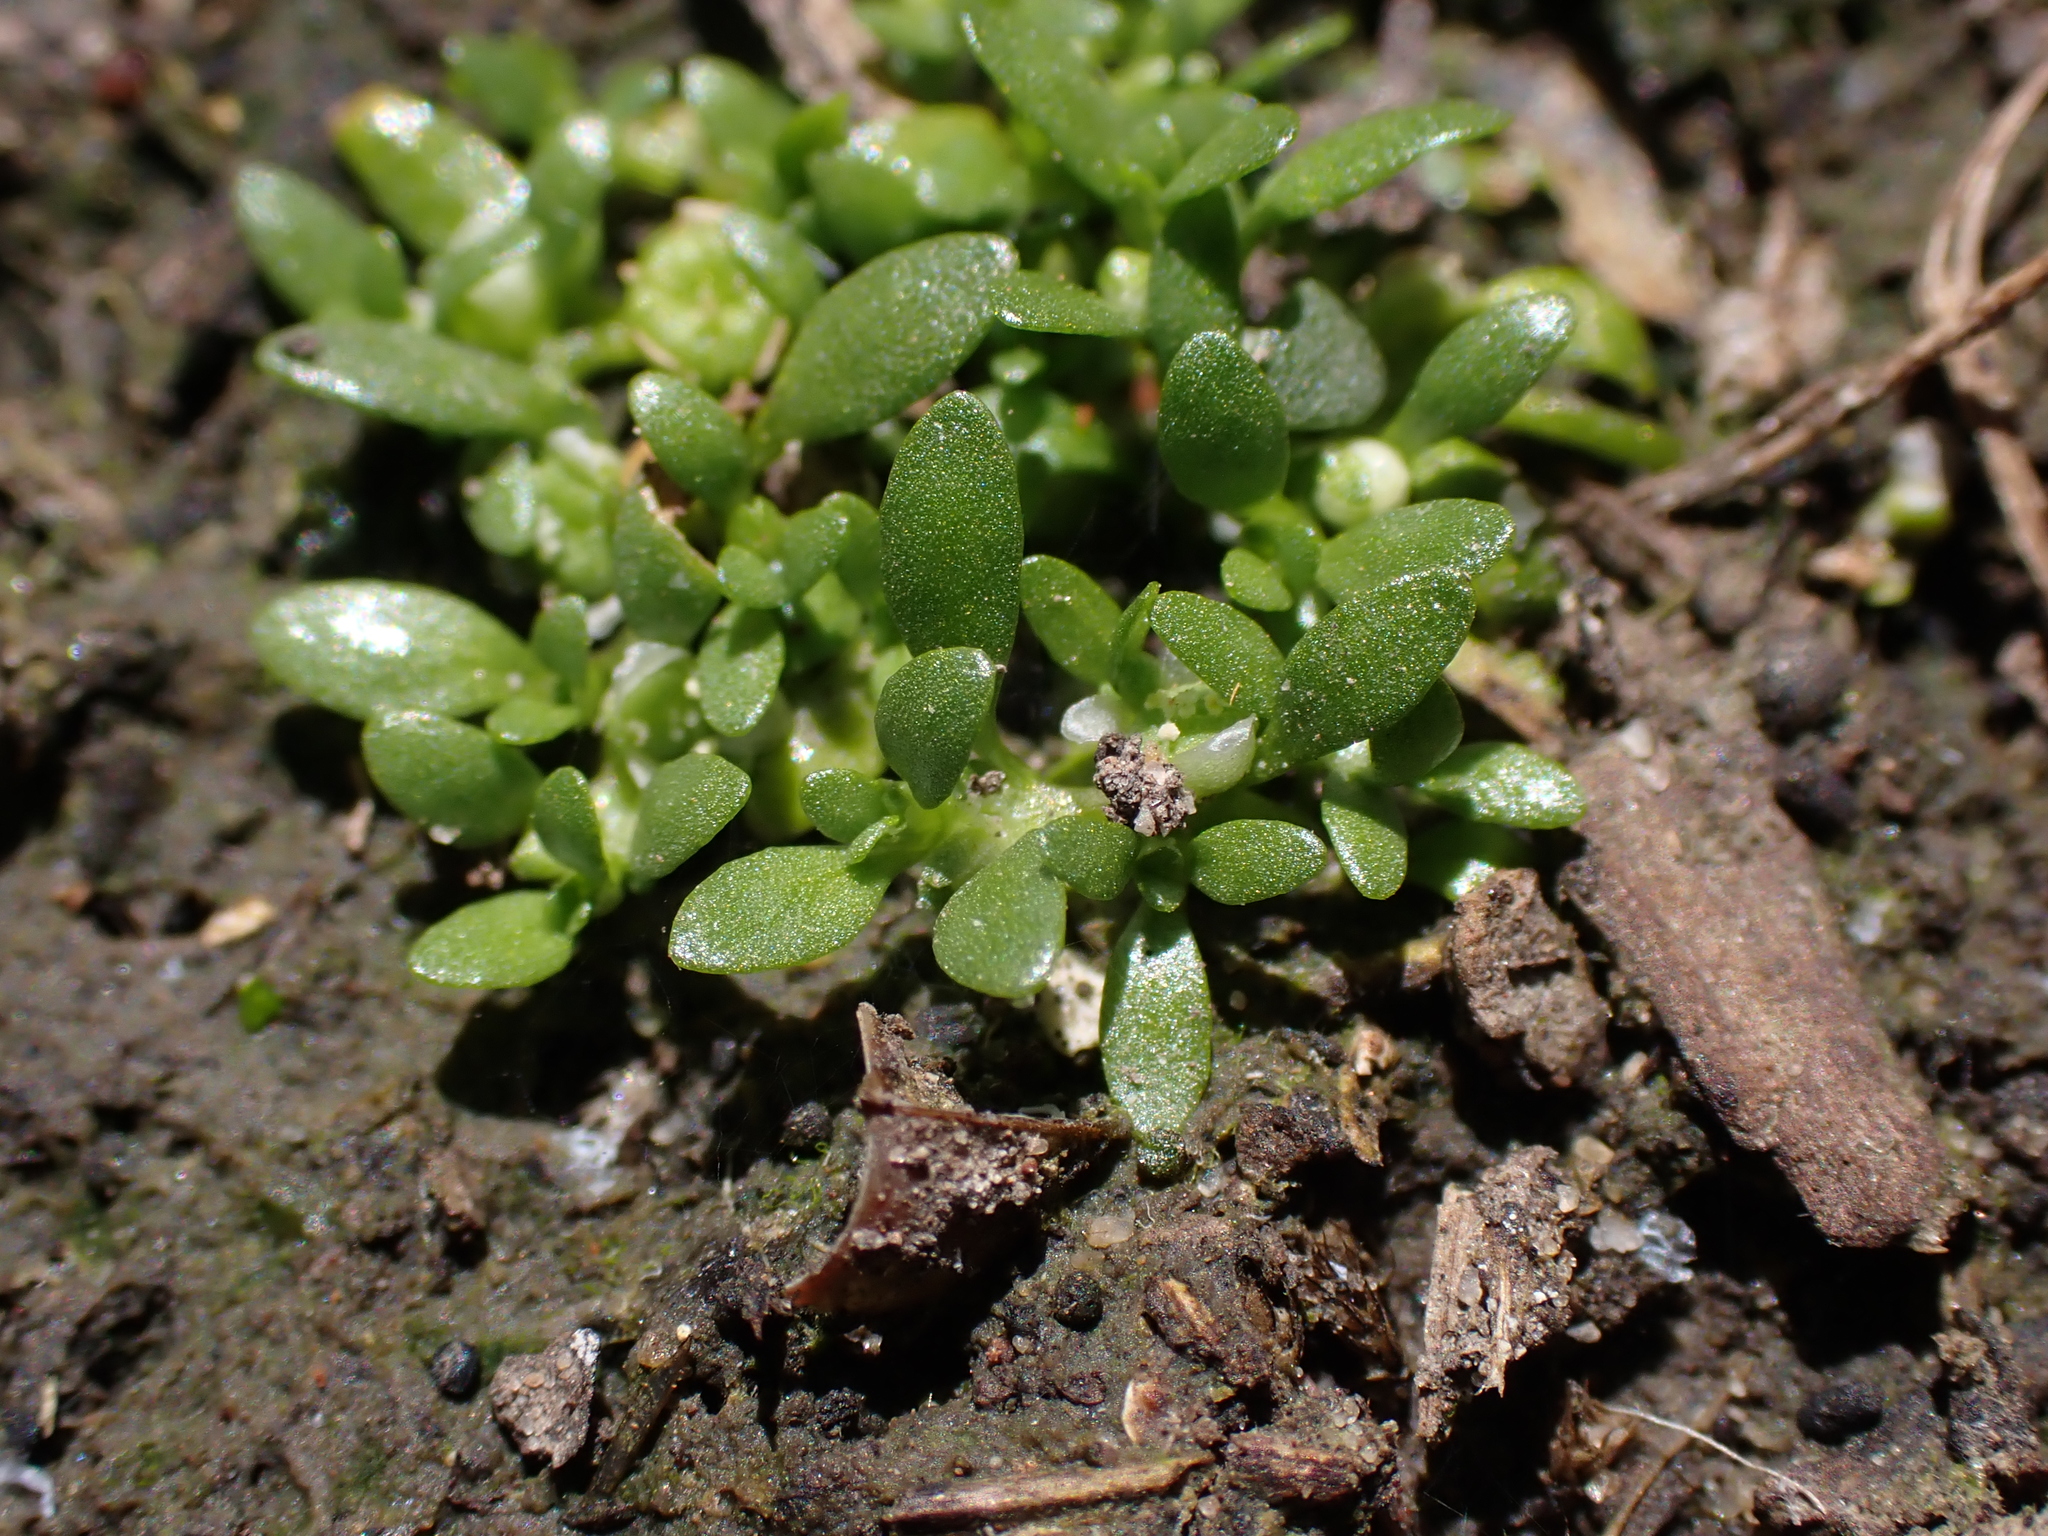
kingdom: Plantae
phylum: Tracheophyta
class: Magnoliopsida
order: Malpighiales
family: Elatinaceae
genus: Elatine
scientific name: Elatine gratioloides
